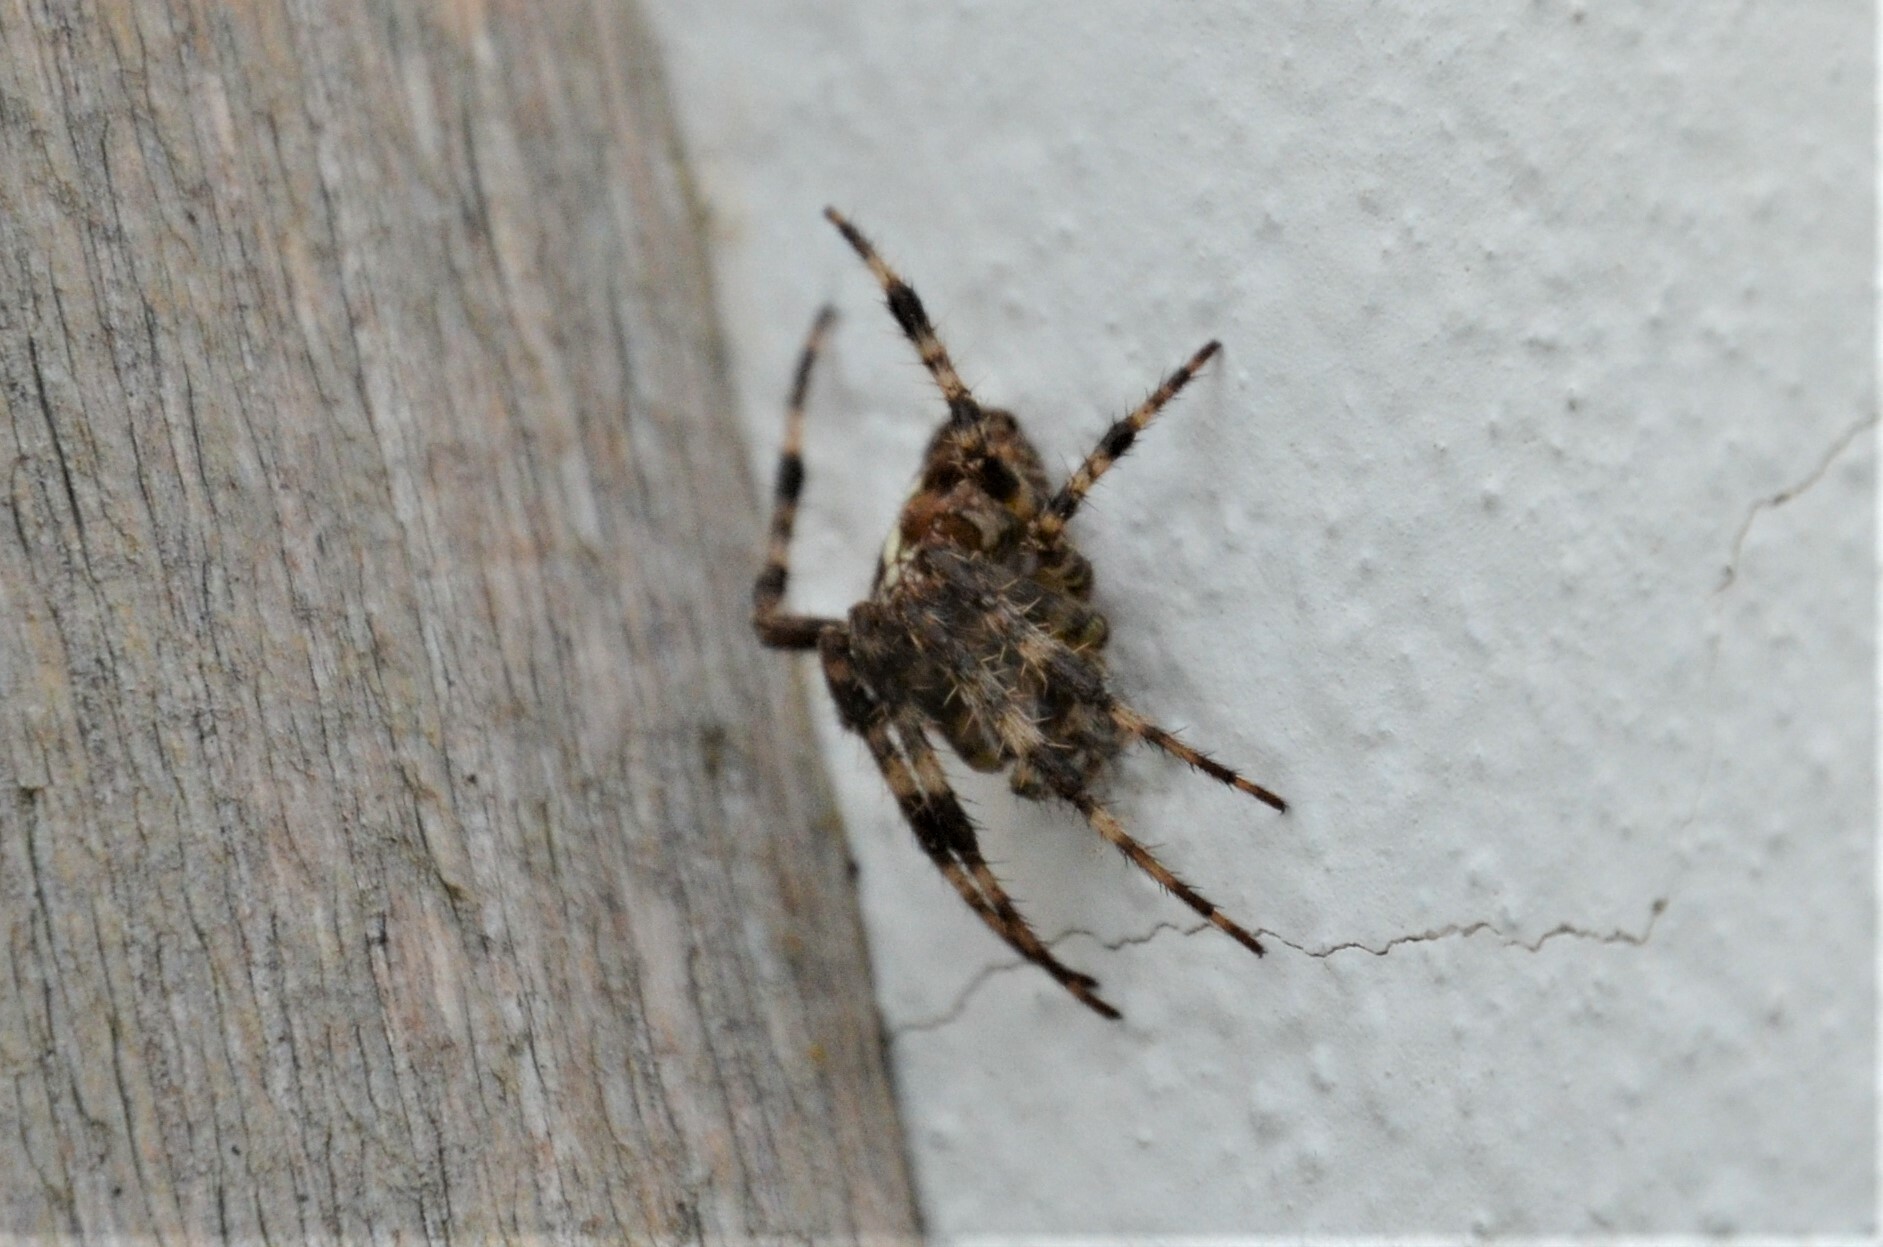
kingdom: Animalia
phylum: Arthropoda
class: Arachnida
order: Araneae
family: Araneidae
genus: Araneus
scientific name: Araneus diadematus
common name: Cross orbweaver
